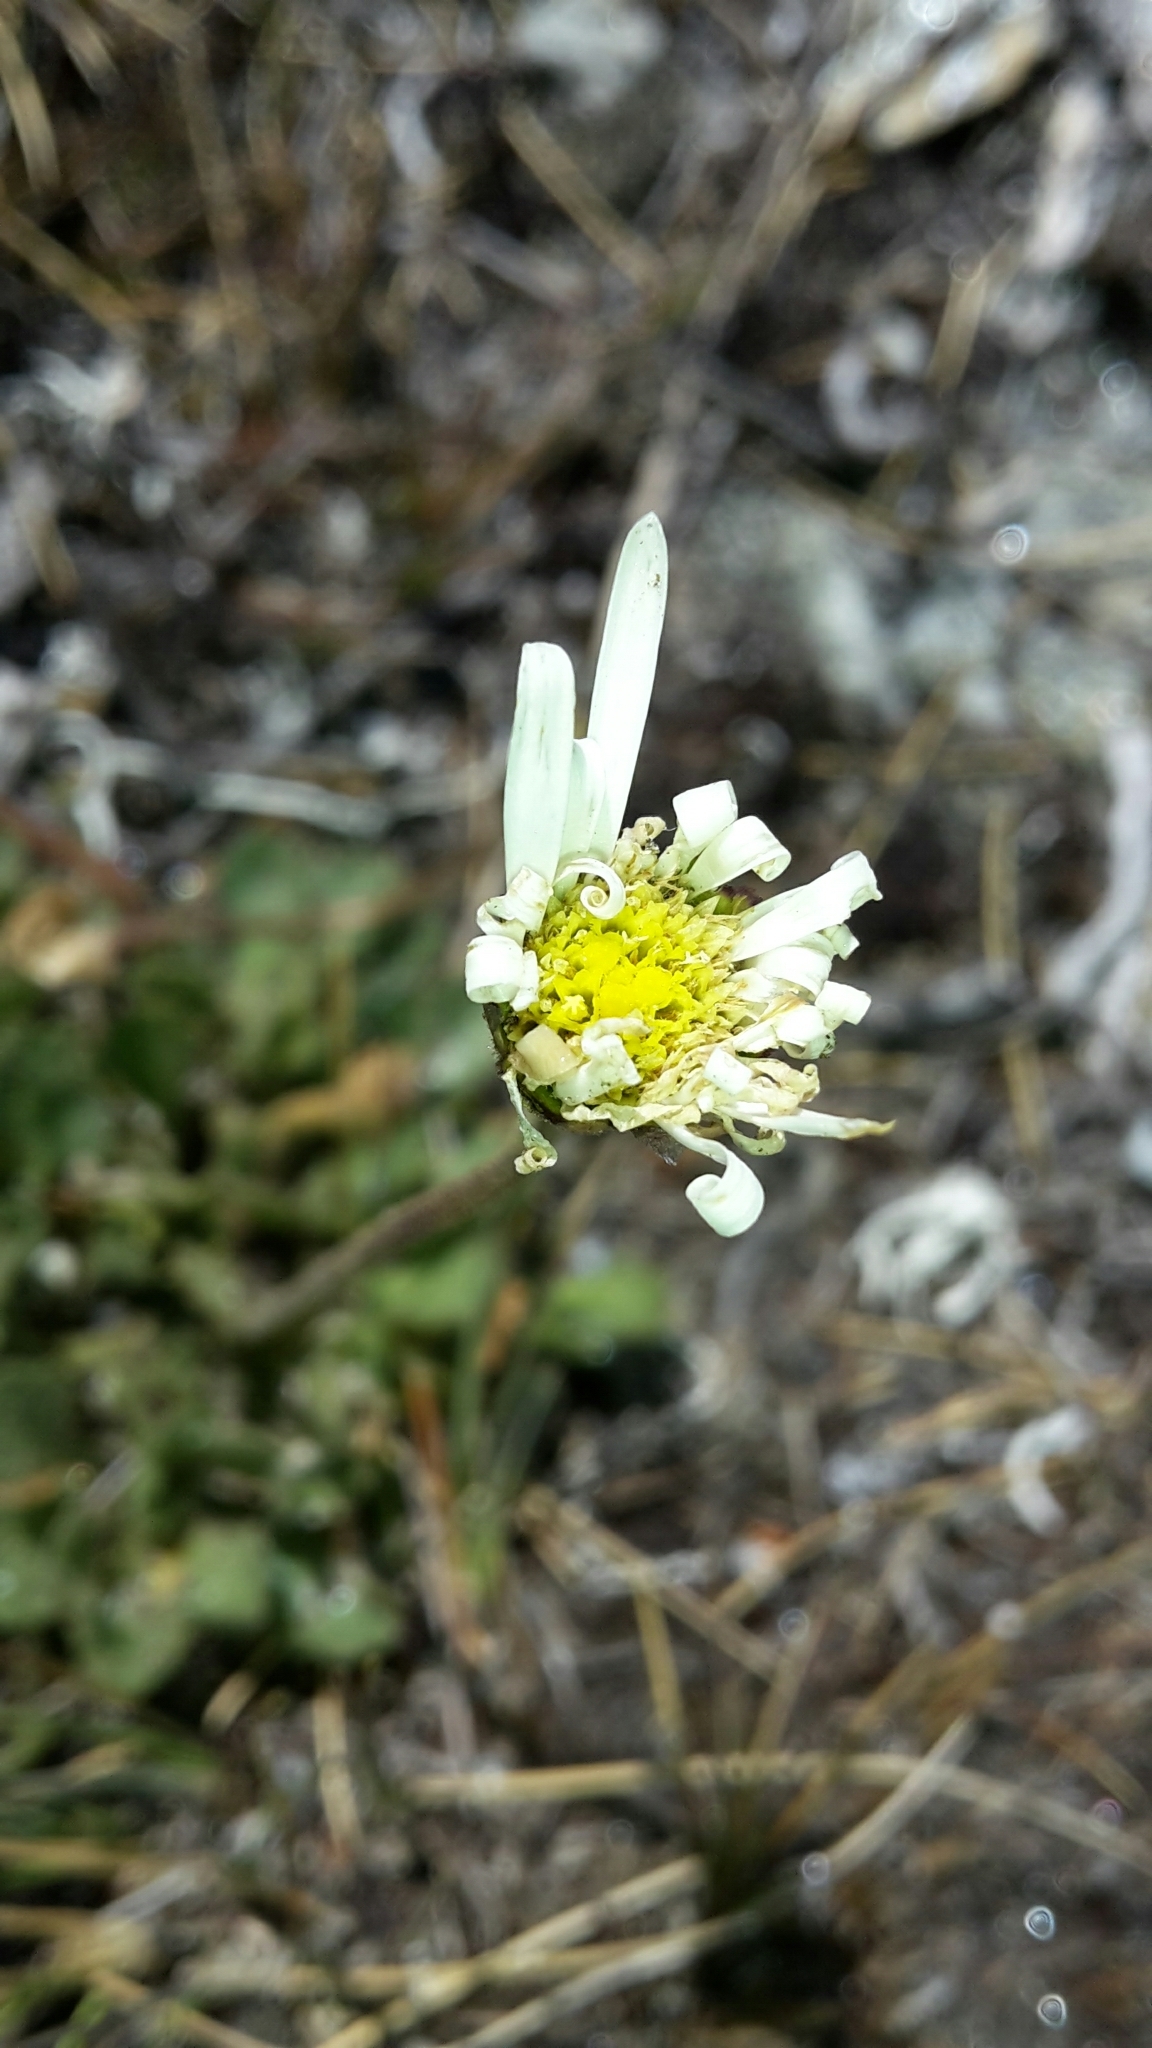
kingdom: Plantae
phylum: Tracheophyta
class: Magnoliopsida
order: Asterales
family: Asteraceae
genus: Brachyscome
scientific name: Brachyscome montana
